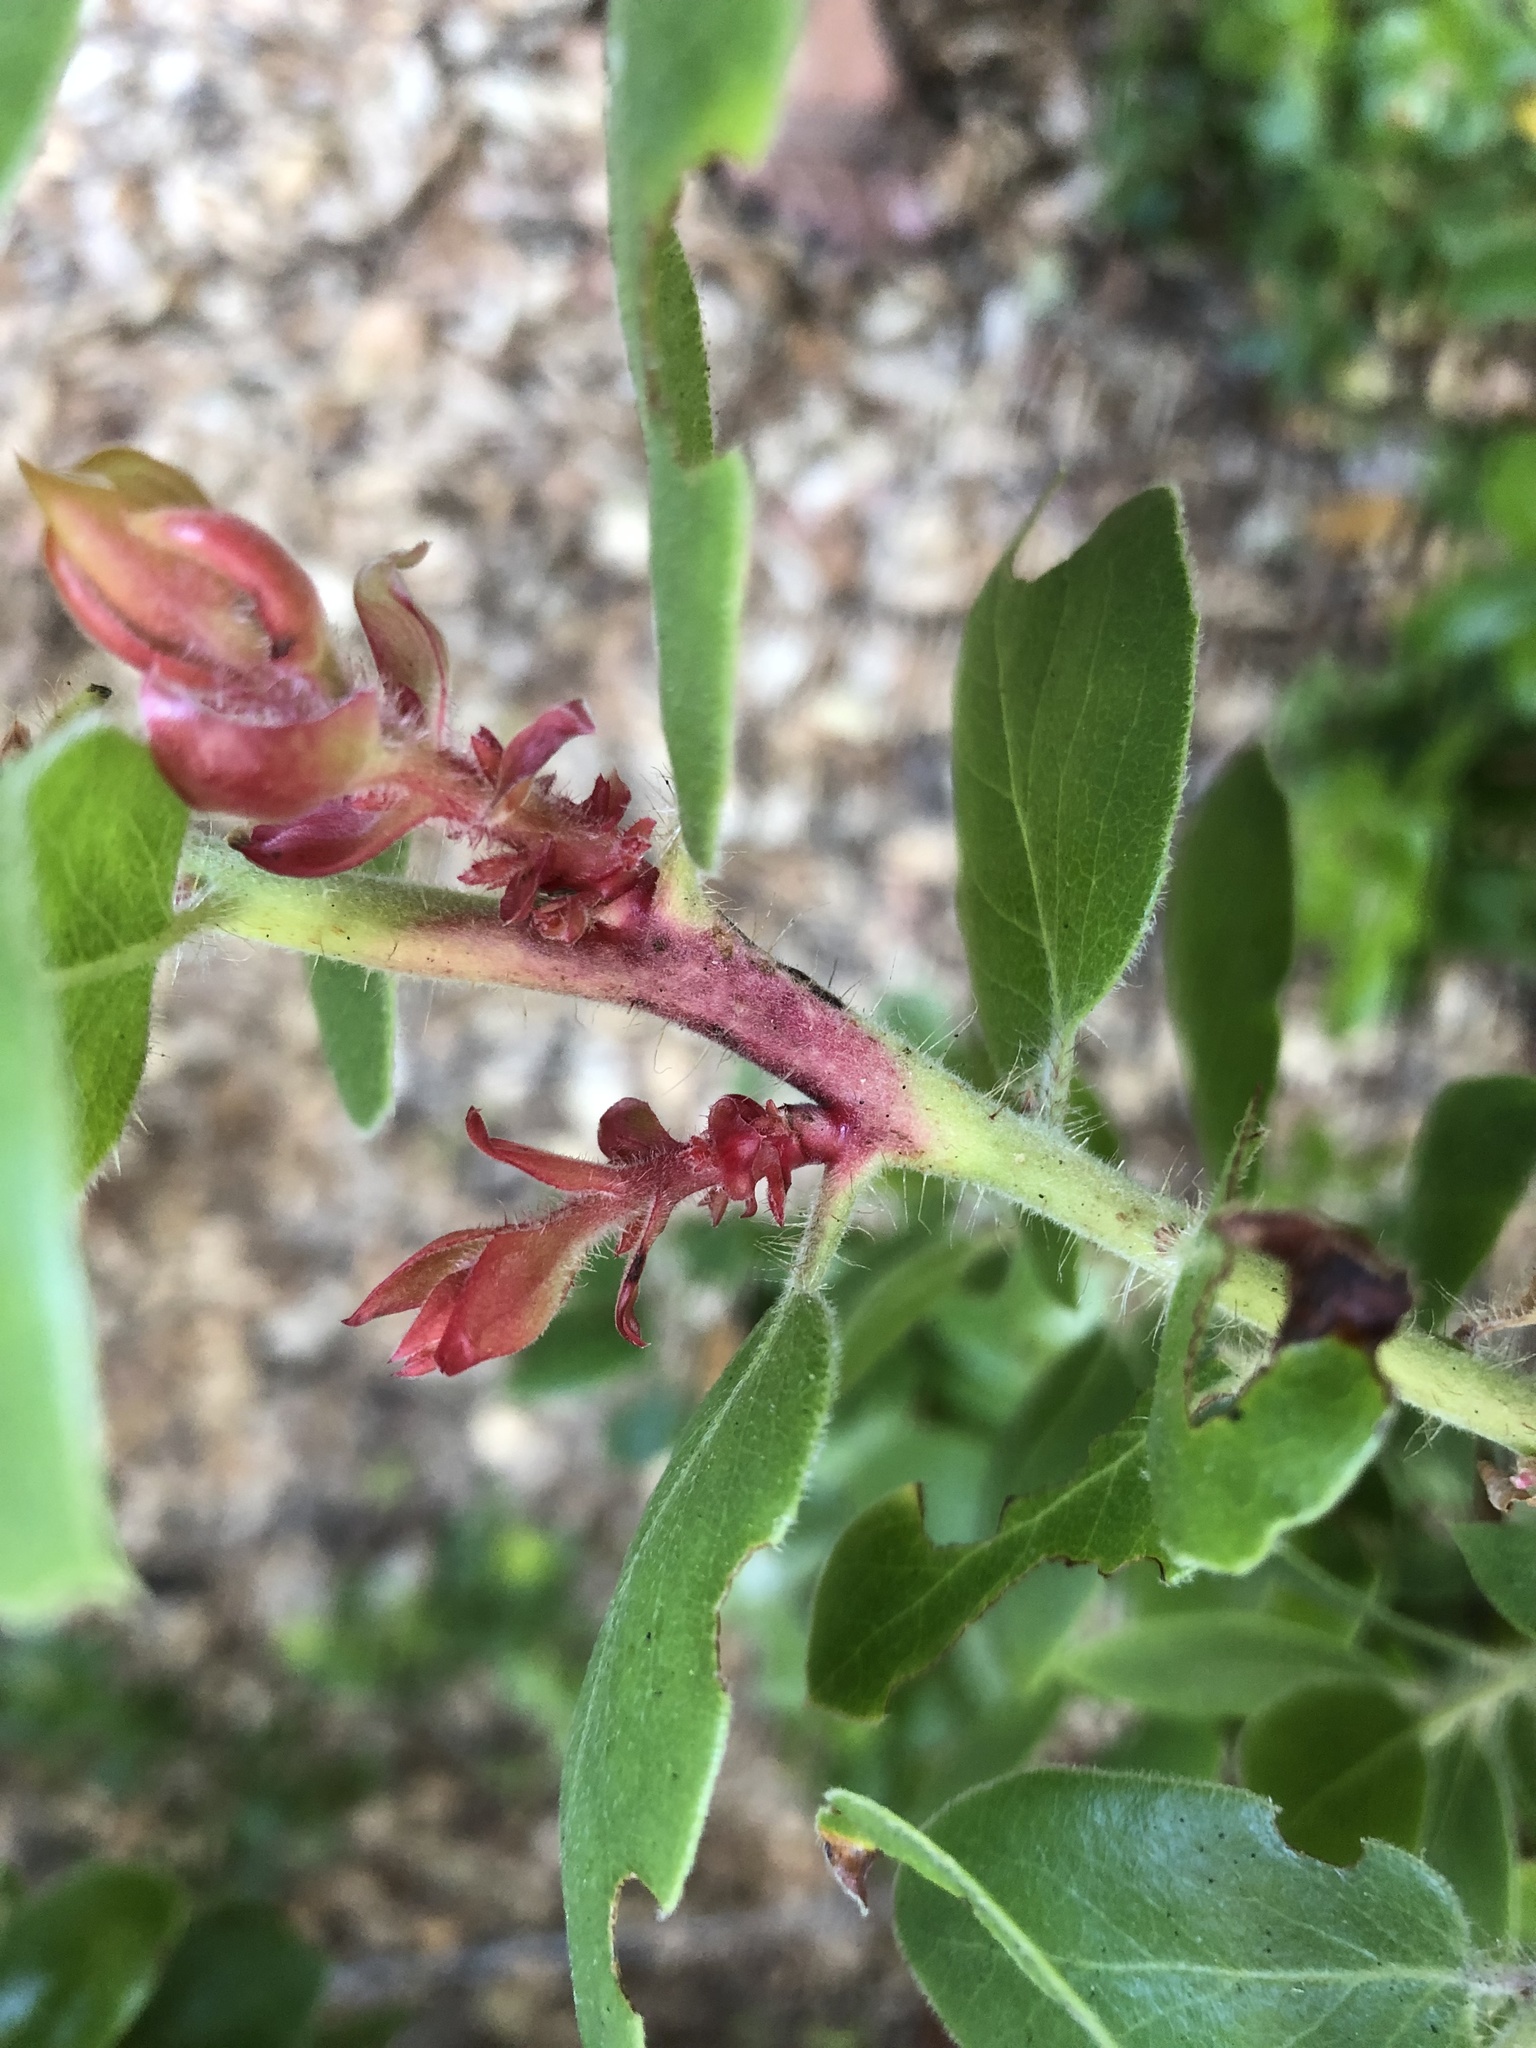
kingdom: Fungi
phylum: Basidiomycota
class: Exobasidiomycetes
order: Exobasidiales
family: Exobasidiaceae
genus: Exobasidium
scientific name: Exobasidium arctostaphyli
